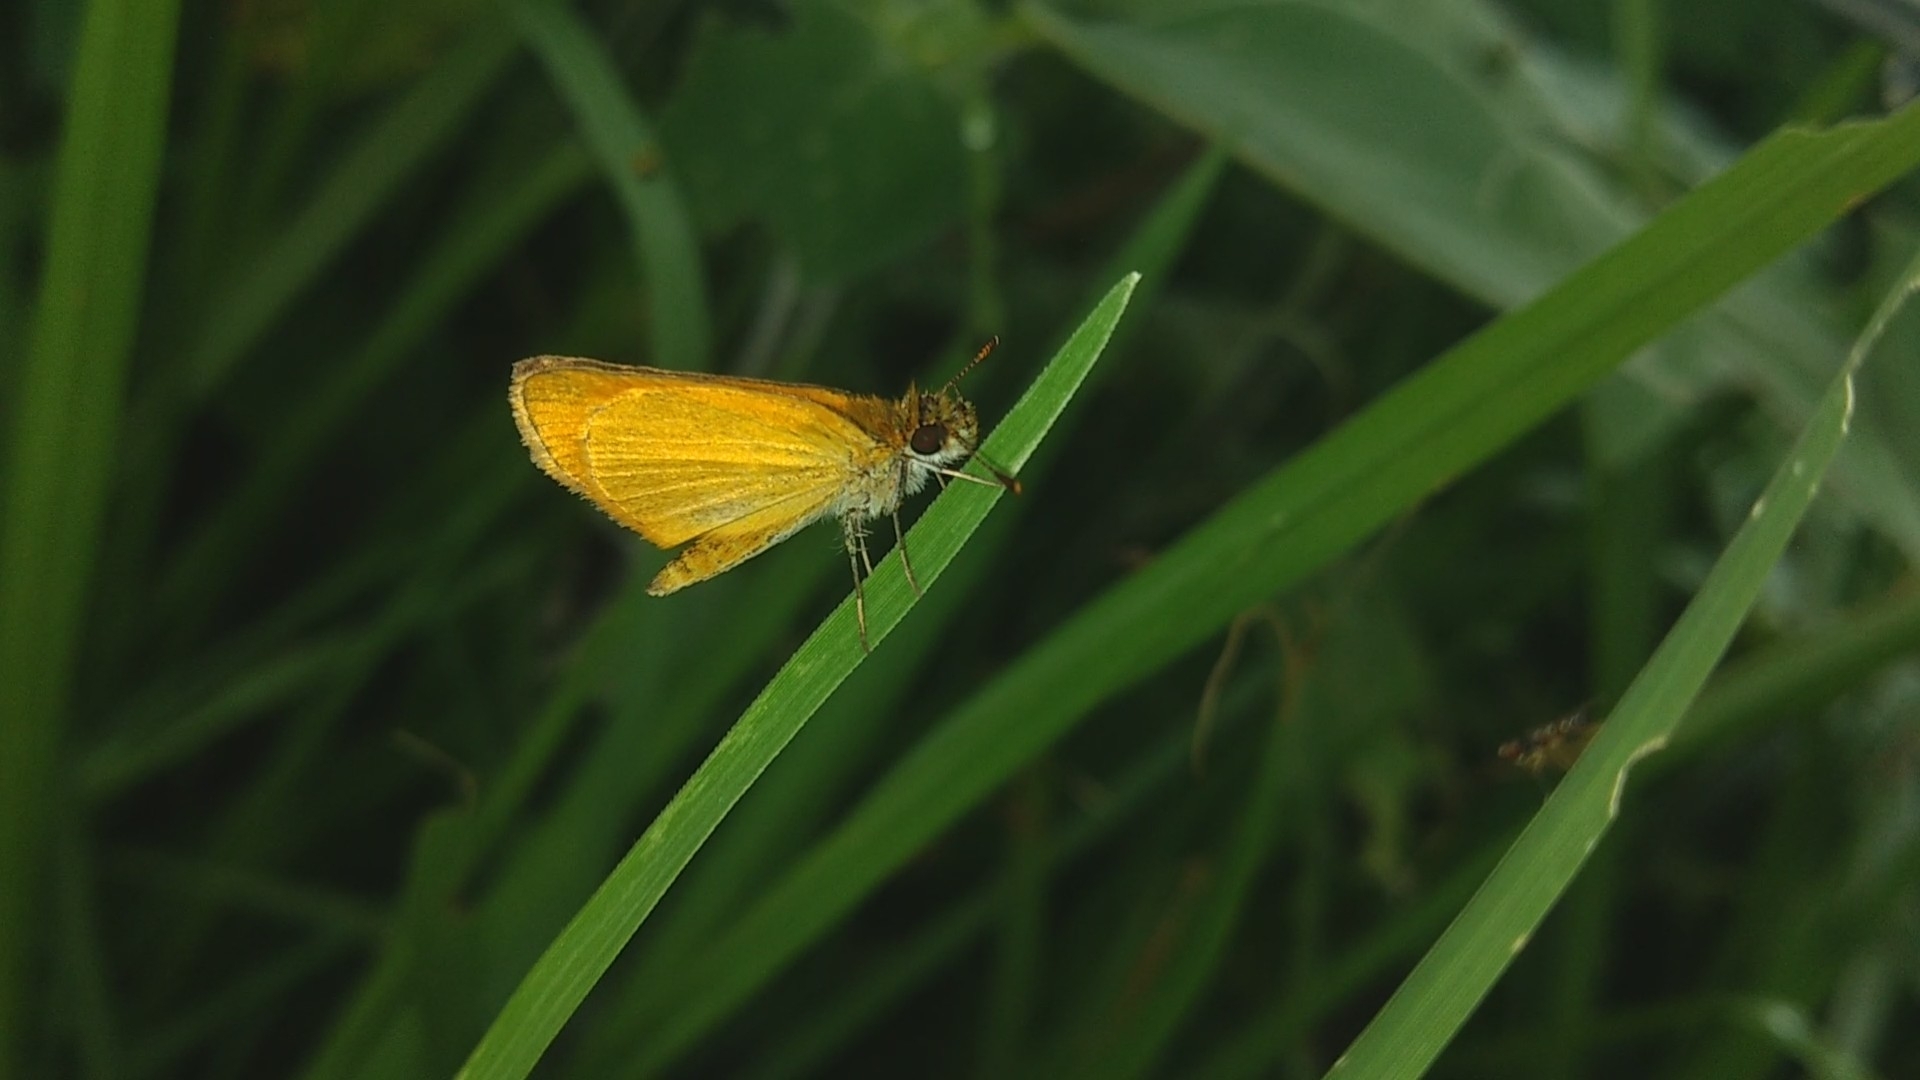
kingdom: Animalia
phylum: Arthropoda
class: Insecta
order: Lepidoptera
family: Hesperiidae
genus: Ancyloxypha
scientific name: Ancyloxypha arene
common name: Tropical least skipper
